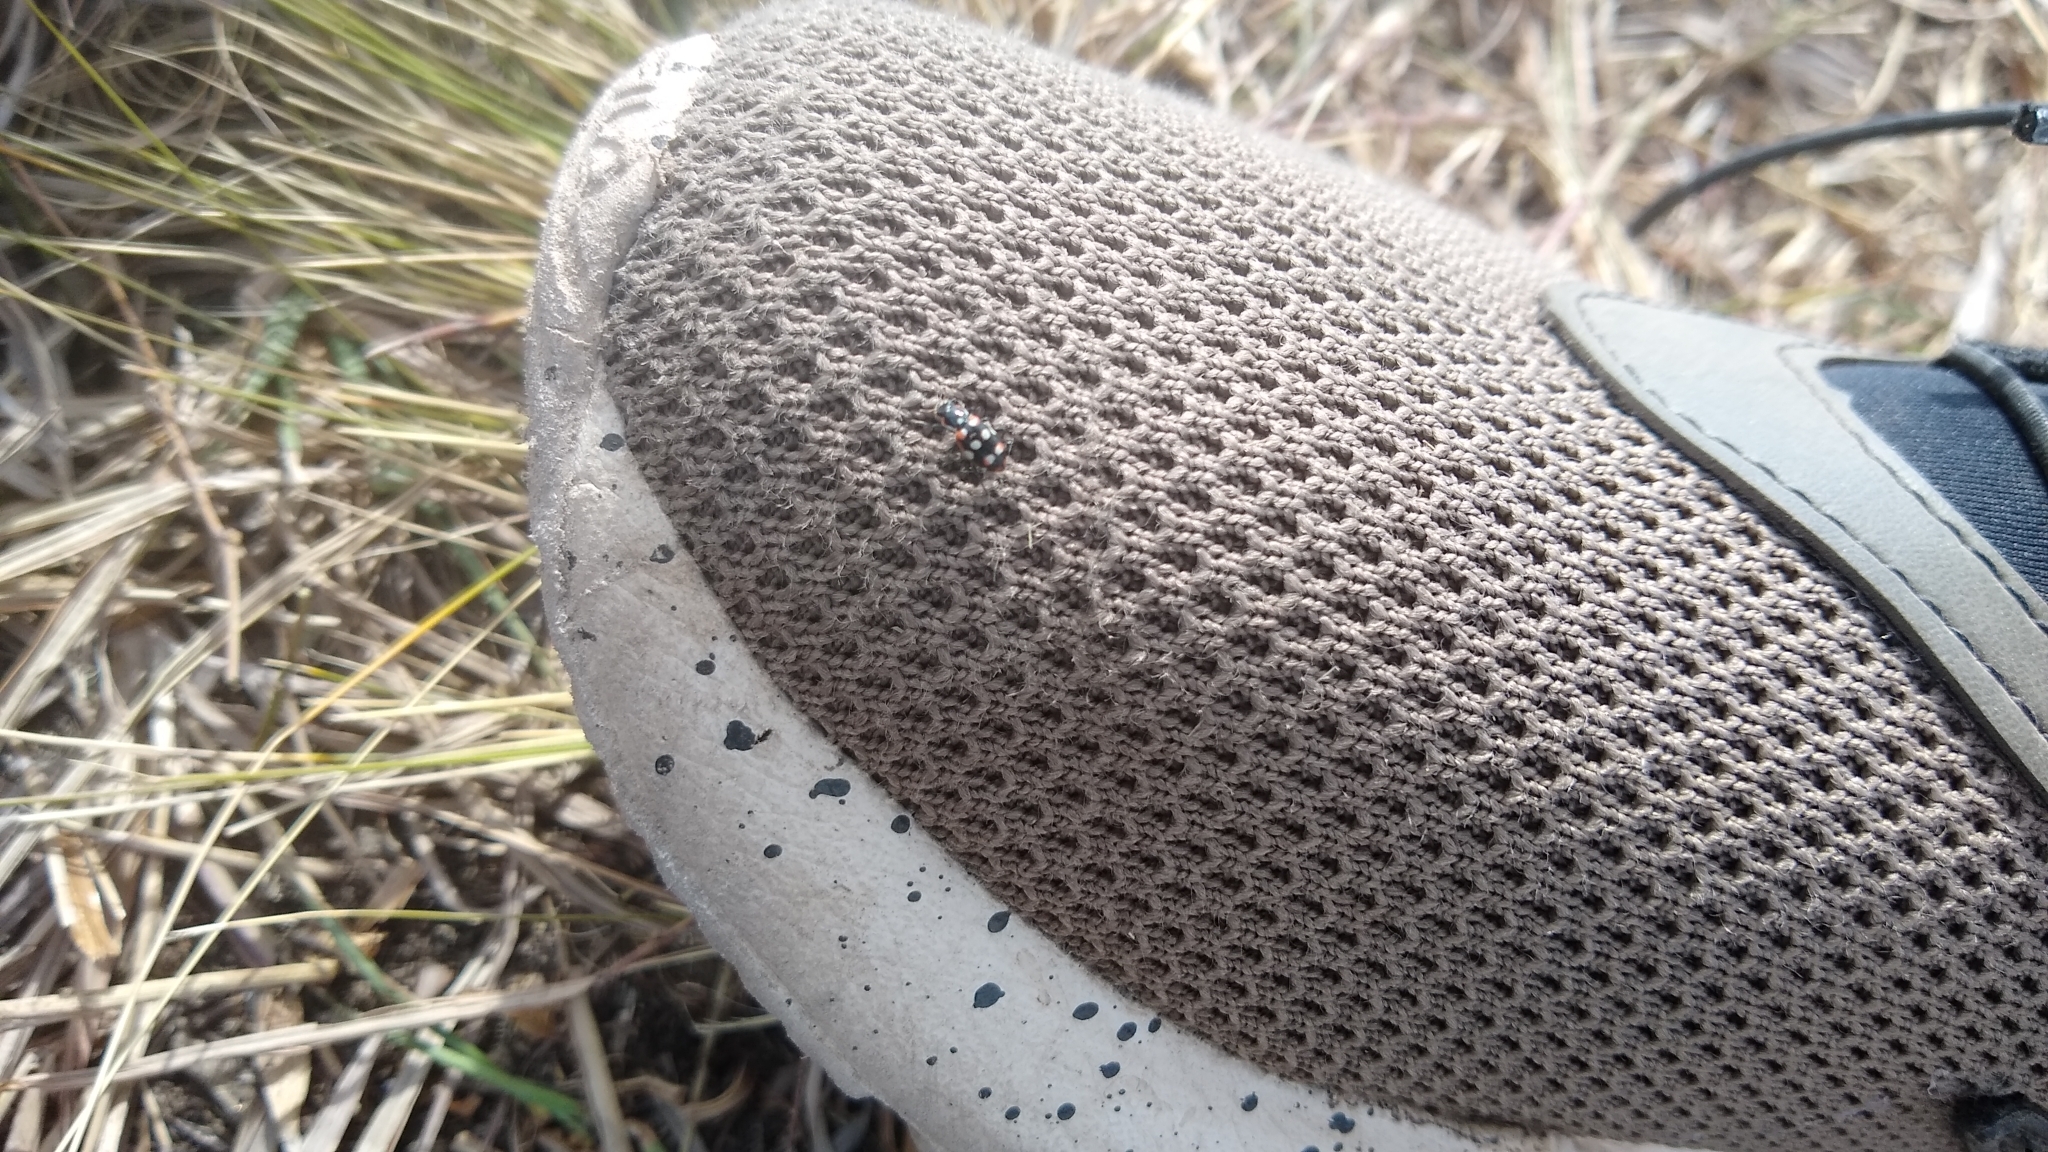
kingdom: Animalia
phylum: Arthropoda
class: Insecta
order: Coleoptera
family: Coccinellidae
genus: Eriopis
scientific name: Eriopis connexa
